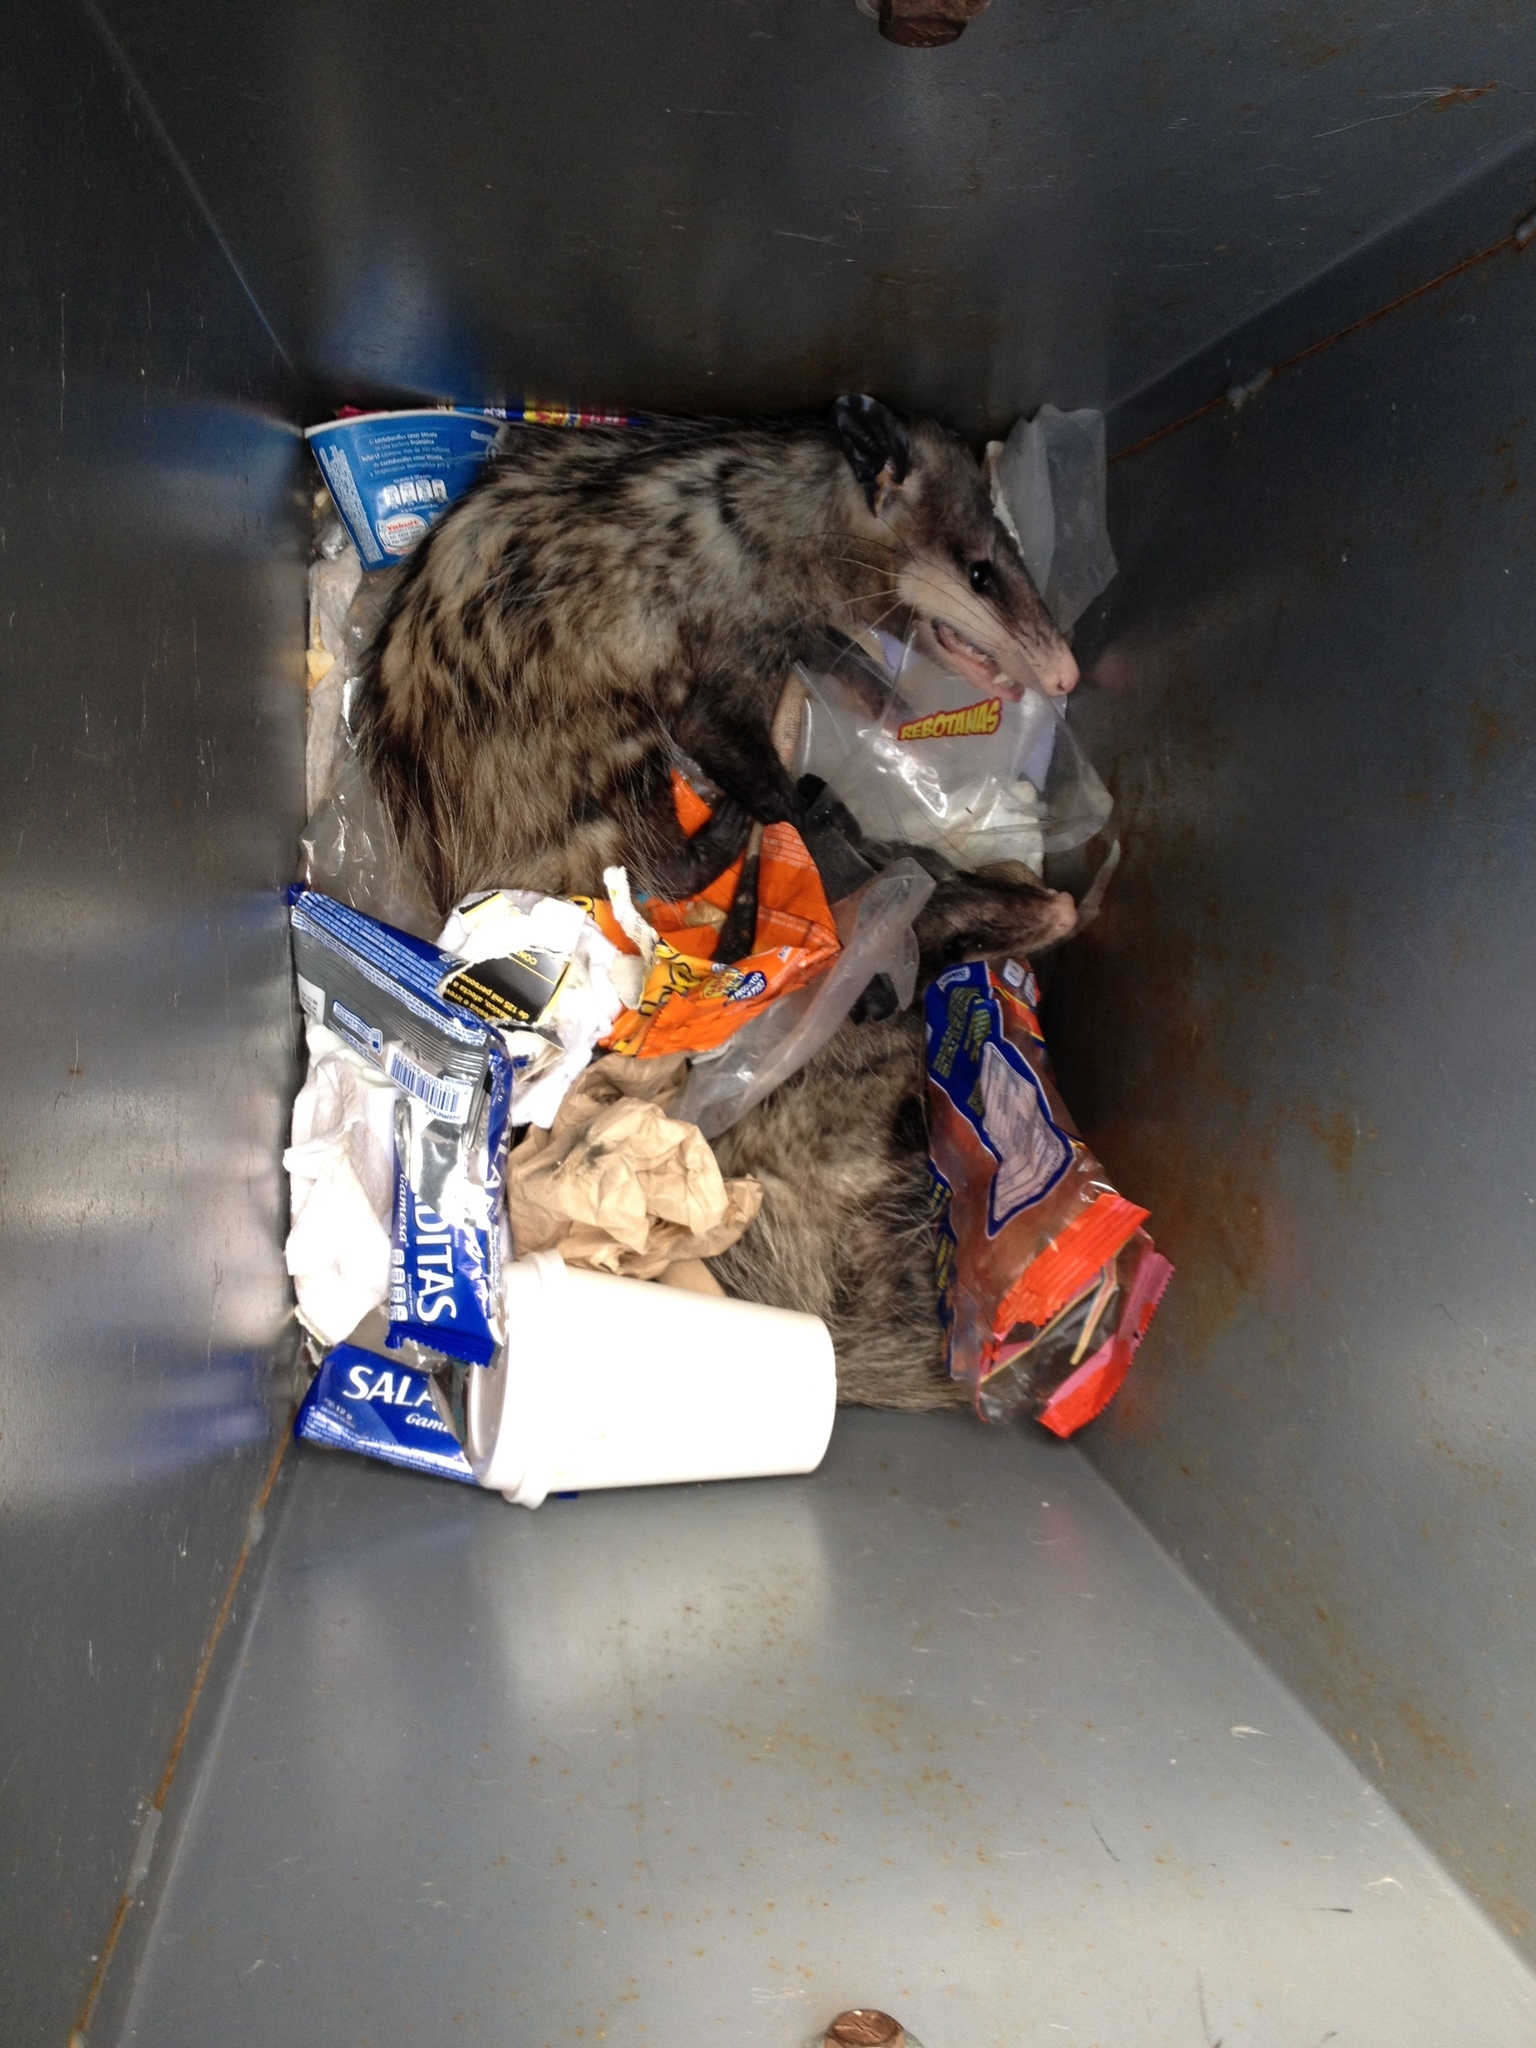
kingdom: Animalia
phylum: Chordata
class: Mammalia
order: Didelphimorphia
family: Didelphidae
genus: Didelphis
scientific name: Didelphis virginiana
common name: Virginia opossum
